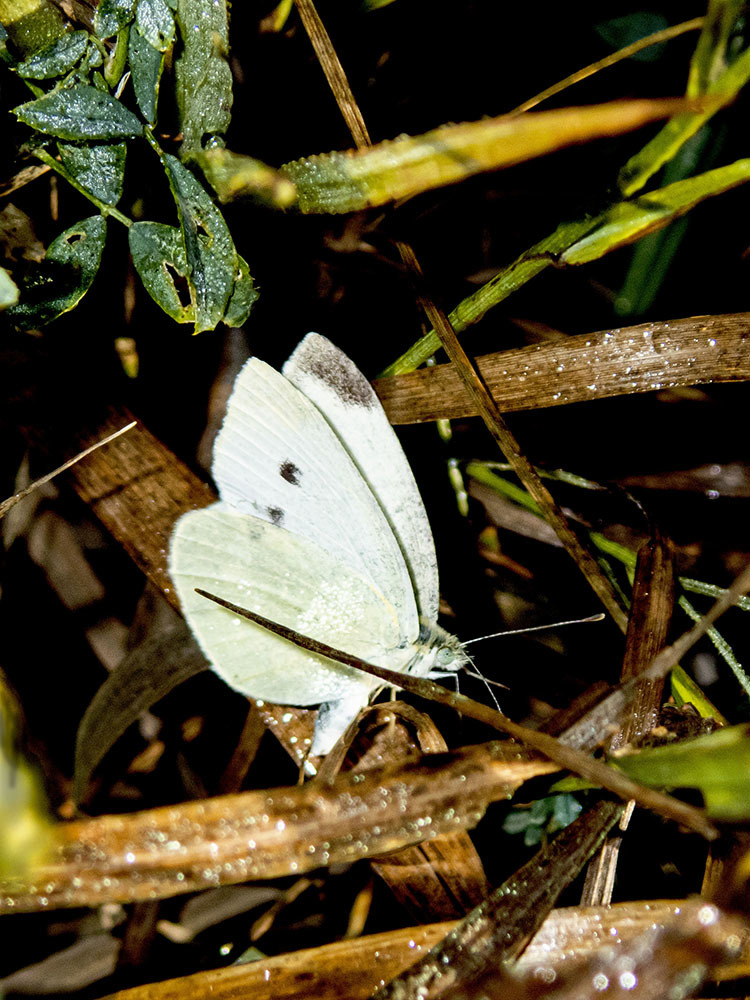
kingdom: Animalia
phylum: Arthropoda
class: Insecta
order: Lepidoptera
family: Pieridae
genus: Pieris
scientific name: Pieris rapae
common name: Small white
